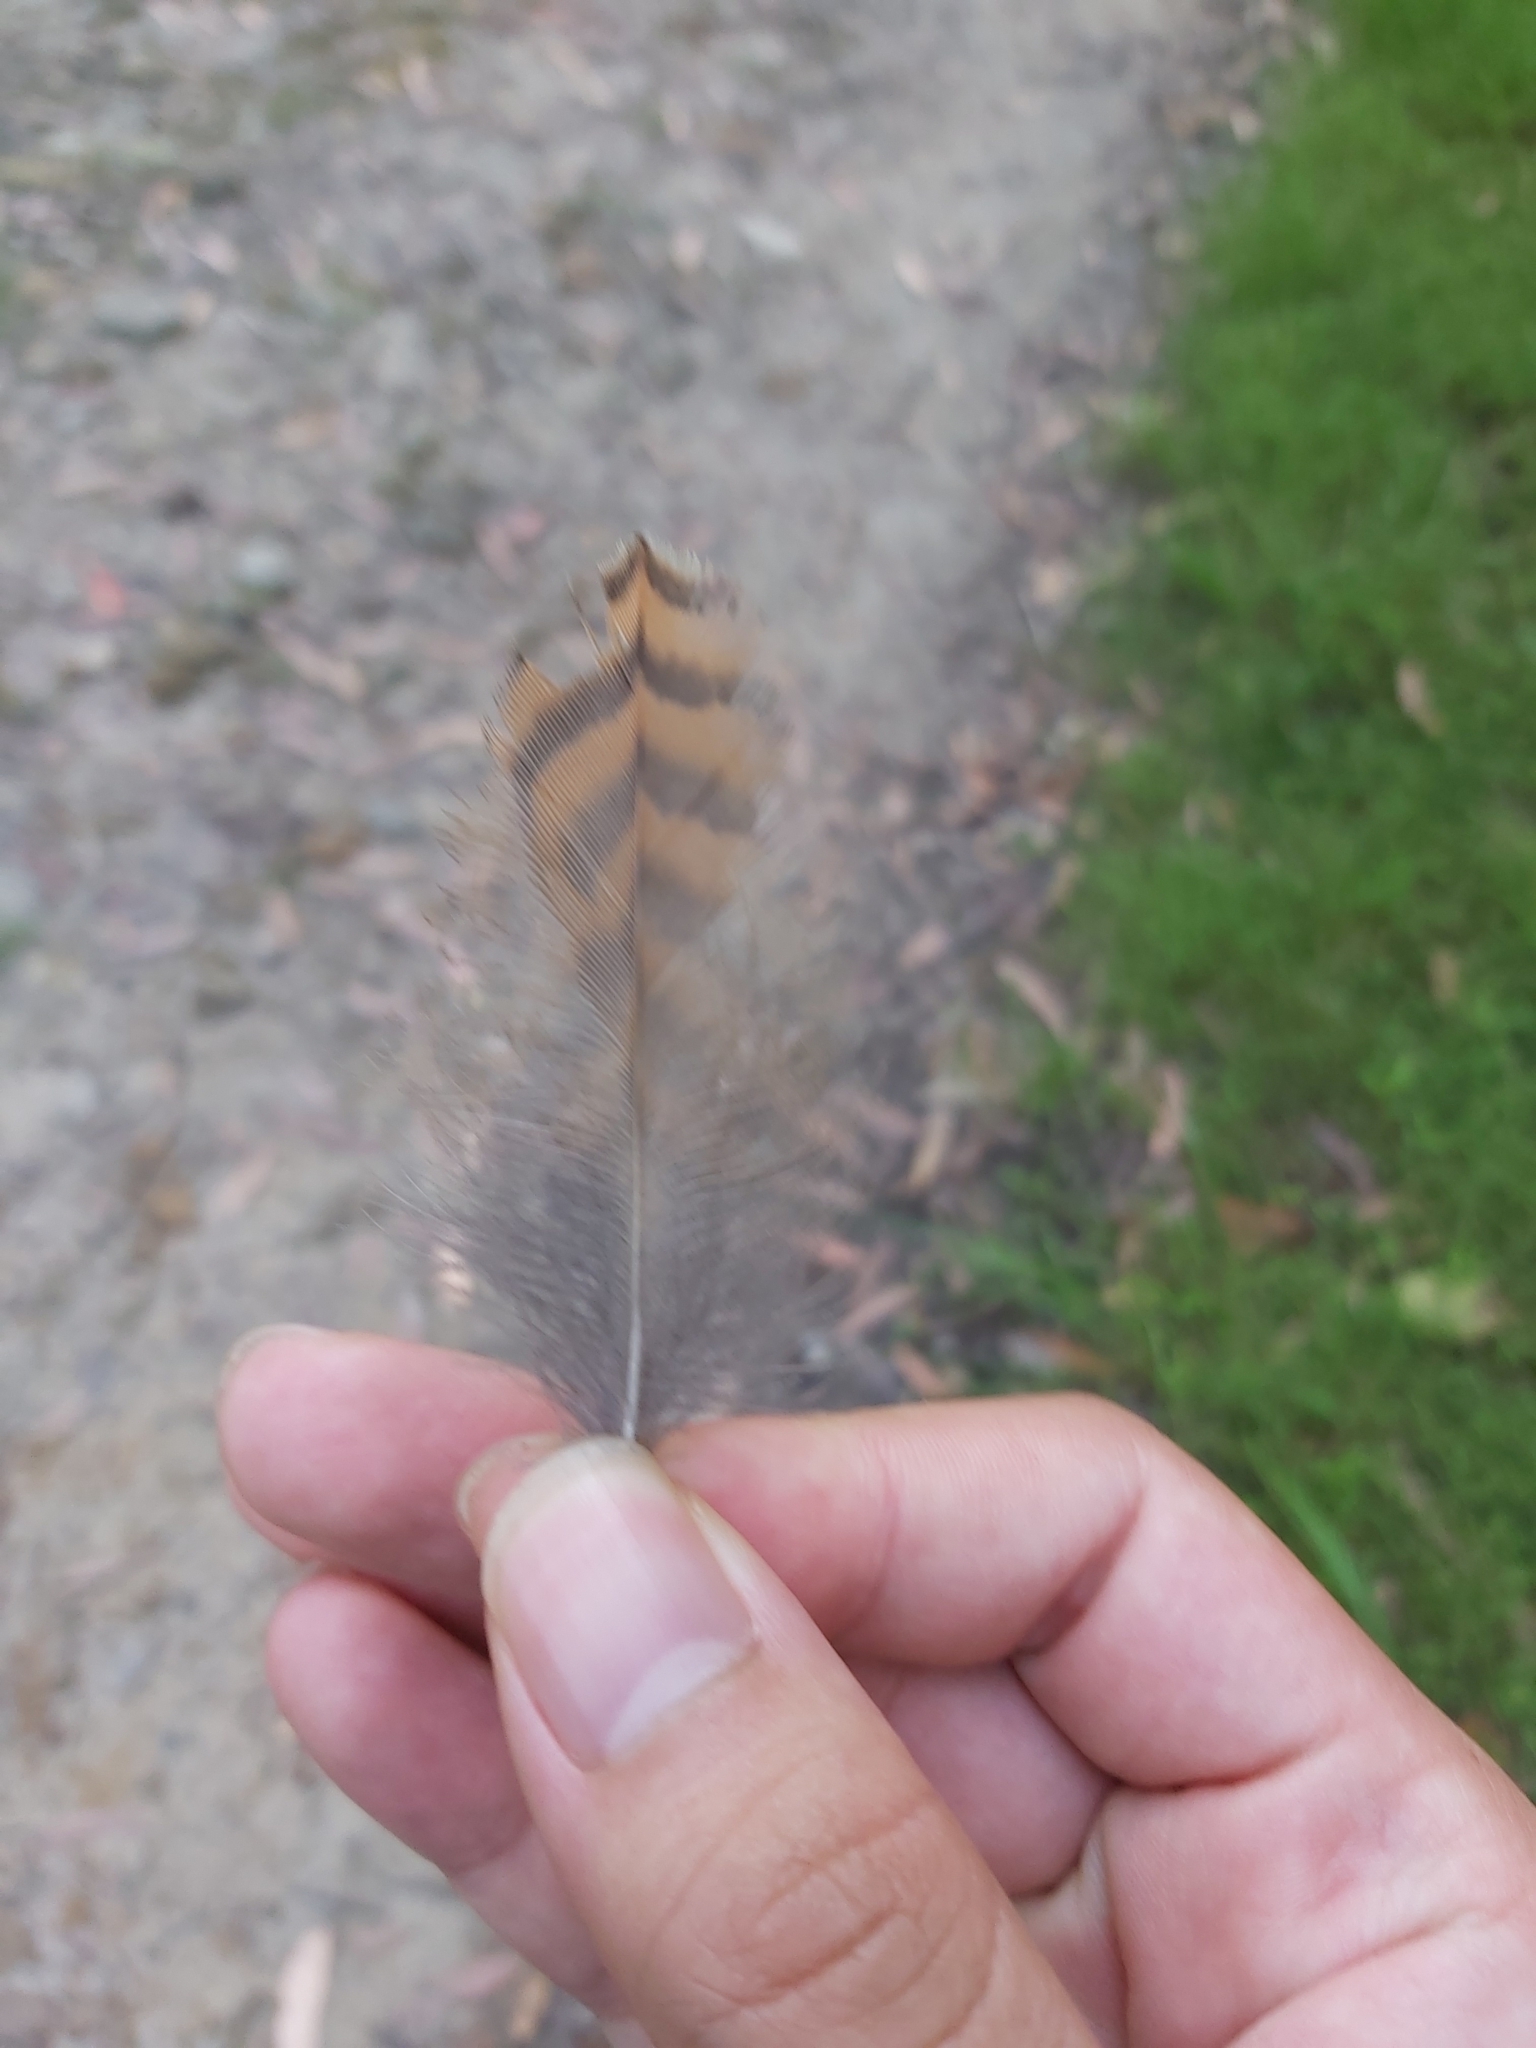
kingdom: Animalia
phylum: Chordata
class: Aves
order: Coraciiformes
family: Alcedinidae
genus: Dacelo
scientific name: Dacelo novaeguineae
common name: Laughing kookaburra
